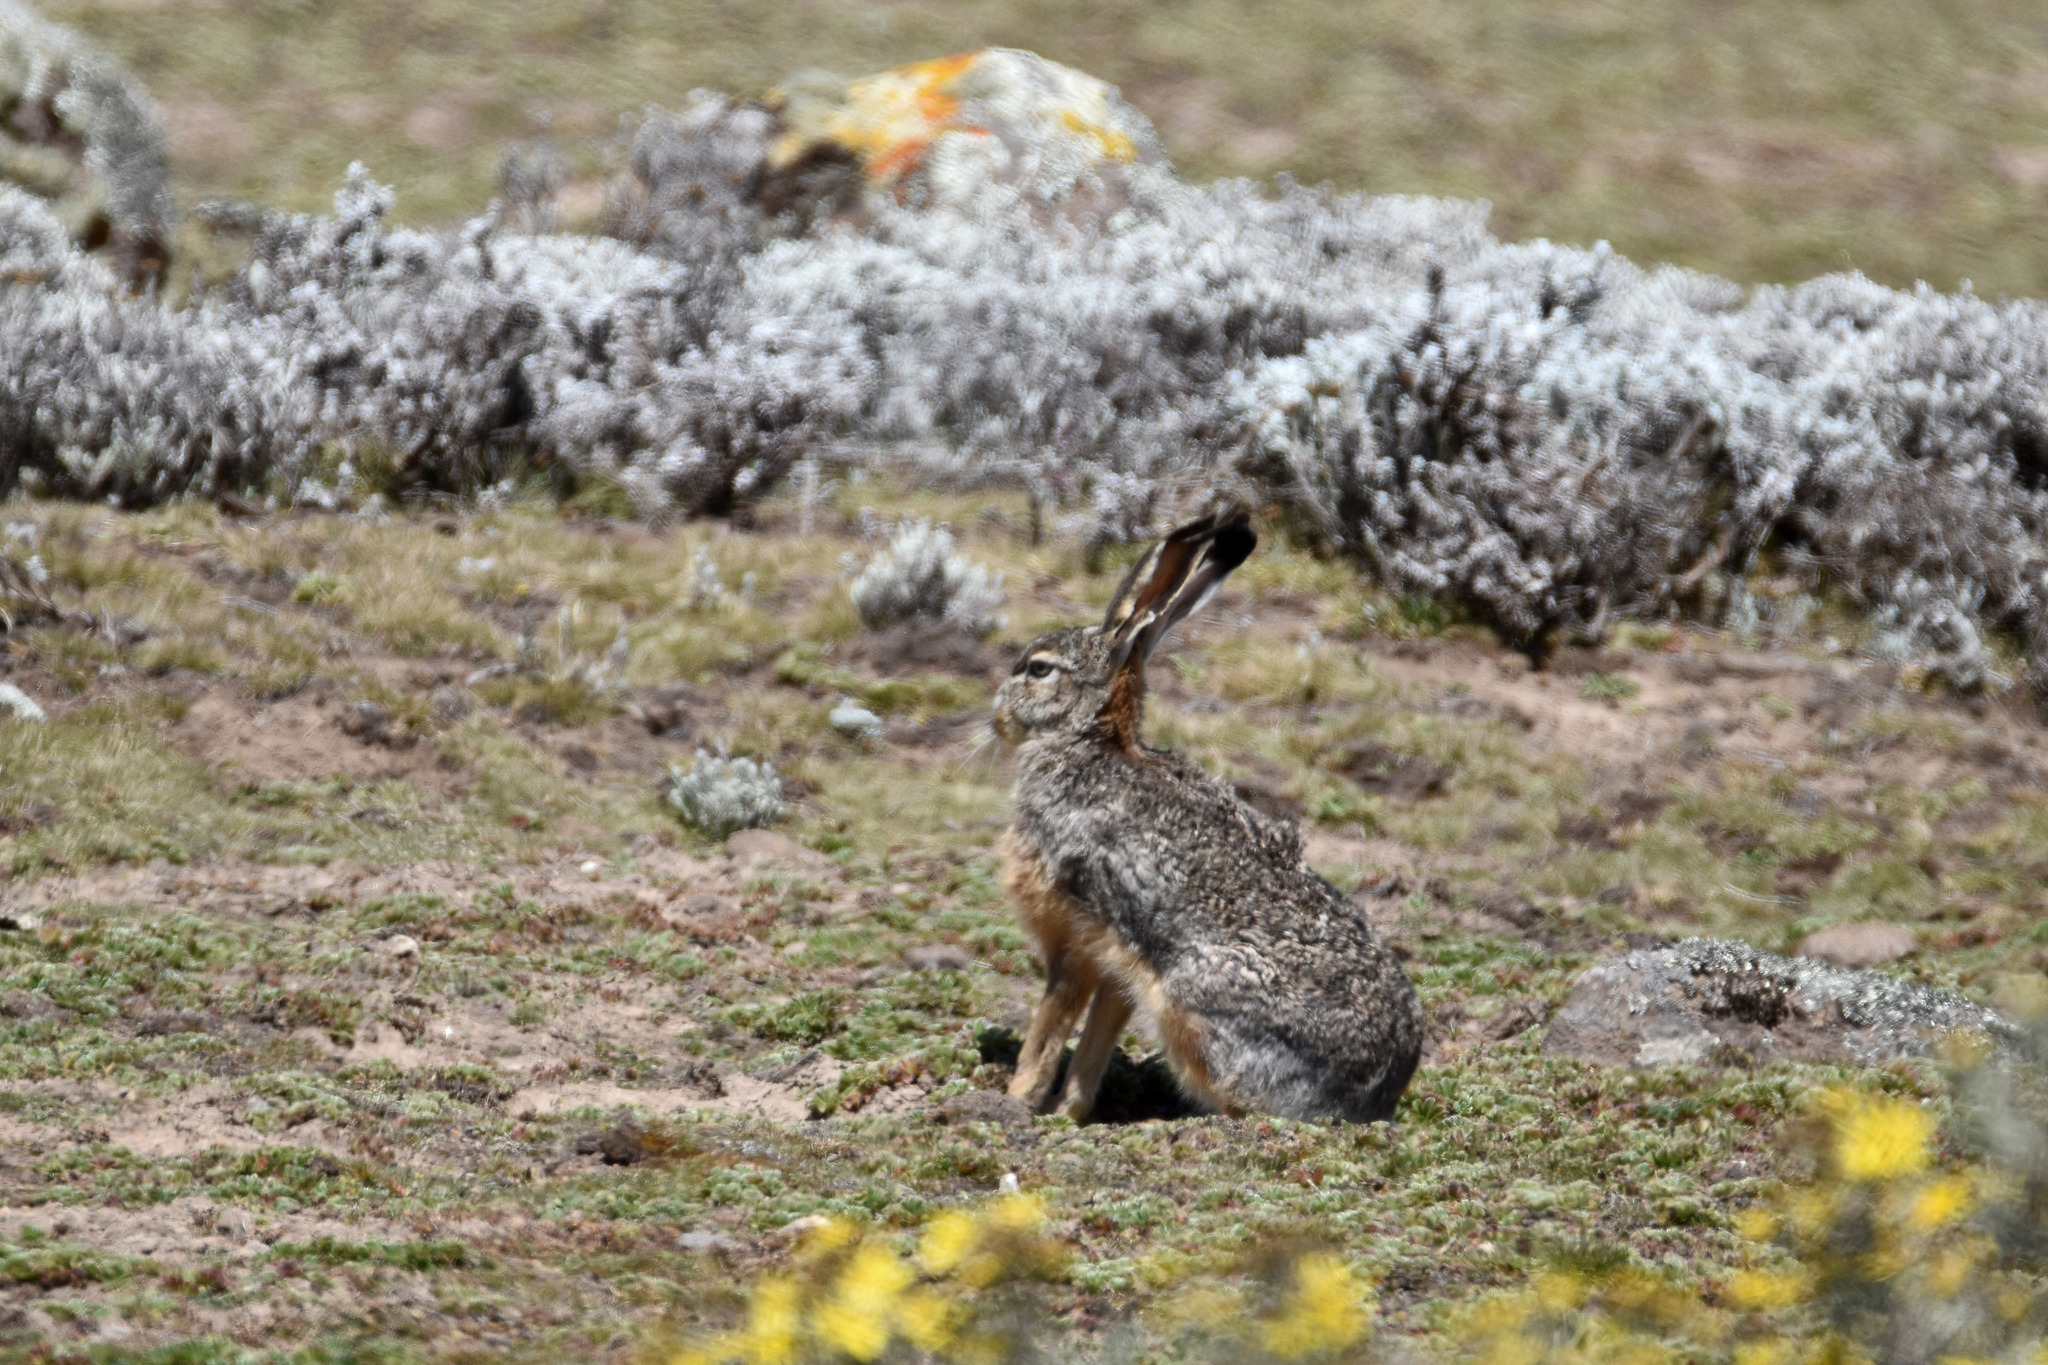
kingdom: Animalia
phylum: Chordata
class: Mammalia
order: Lagomorpha
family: Leporidae
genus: Lepus
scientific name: Lepus starcki
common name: Ethiopian highland hare
